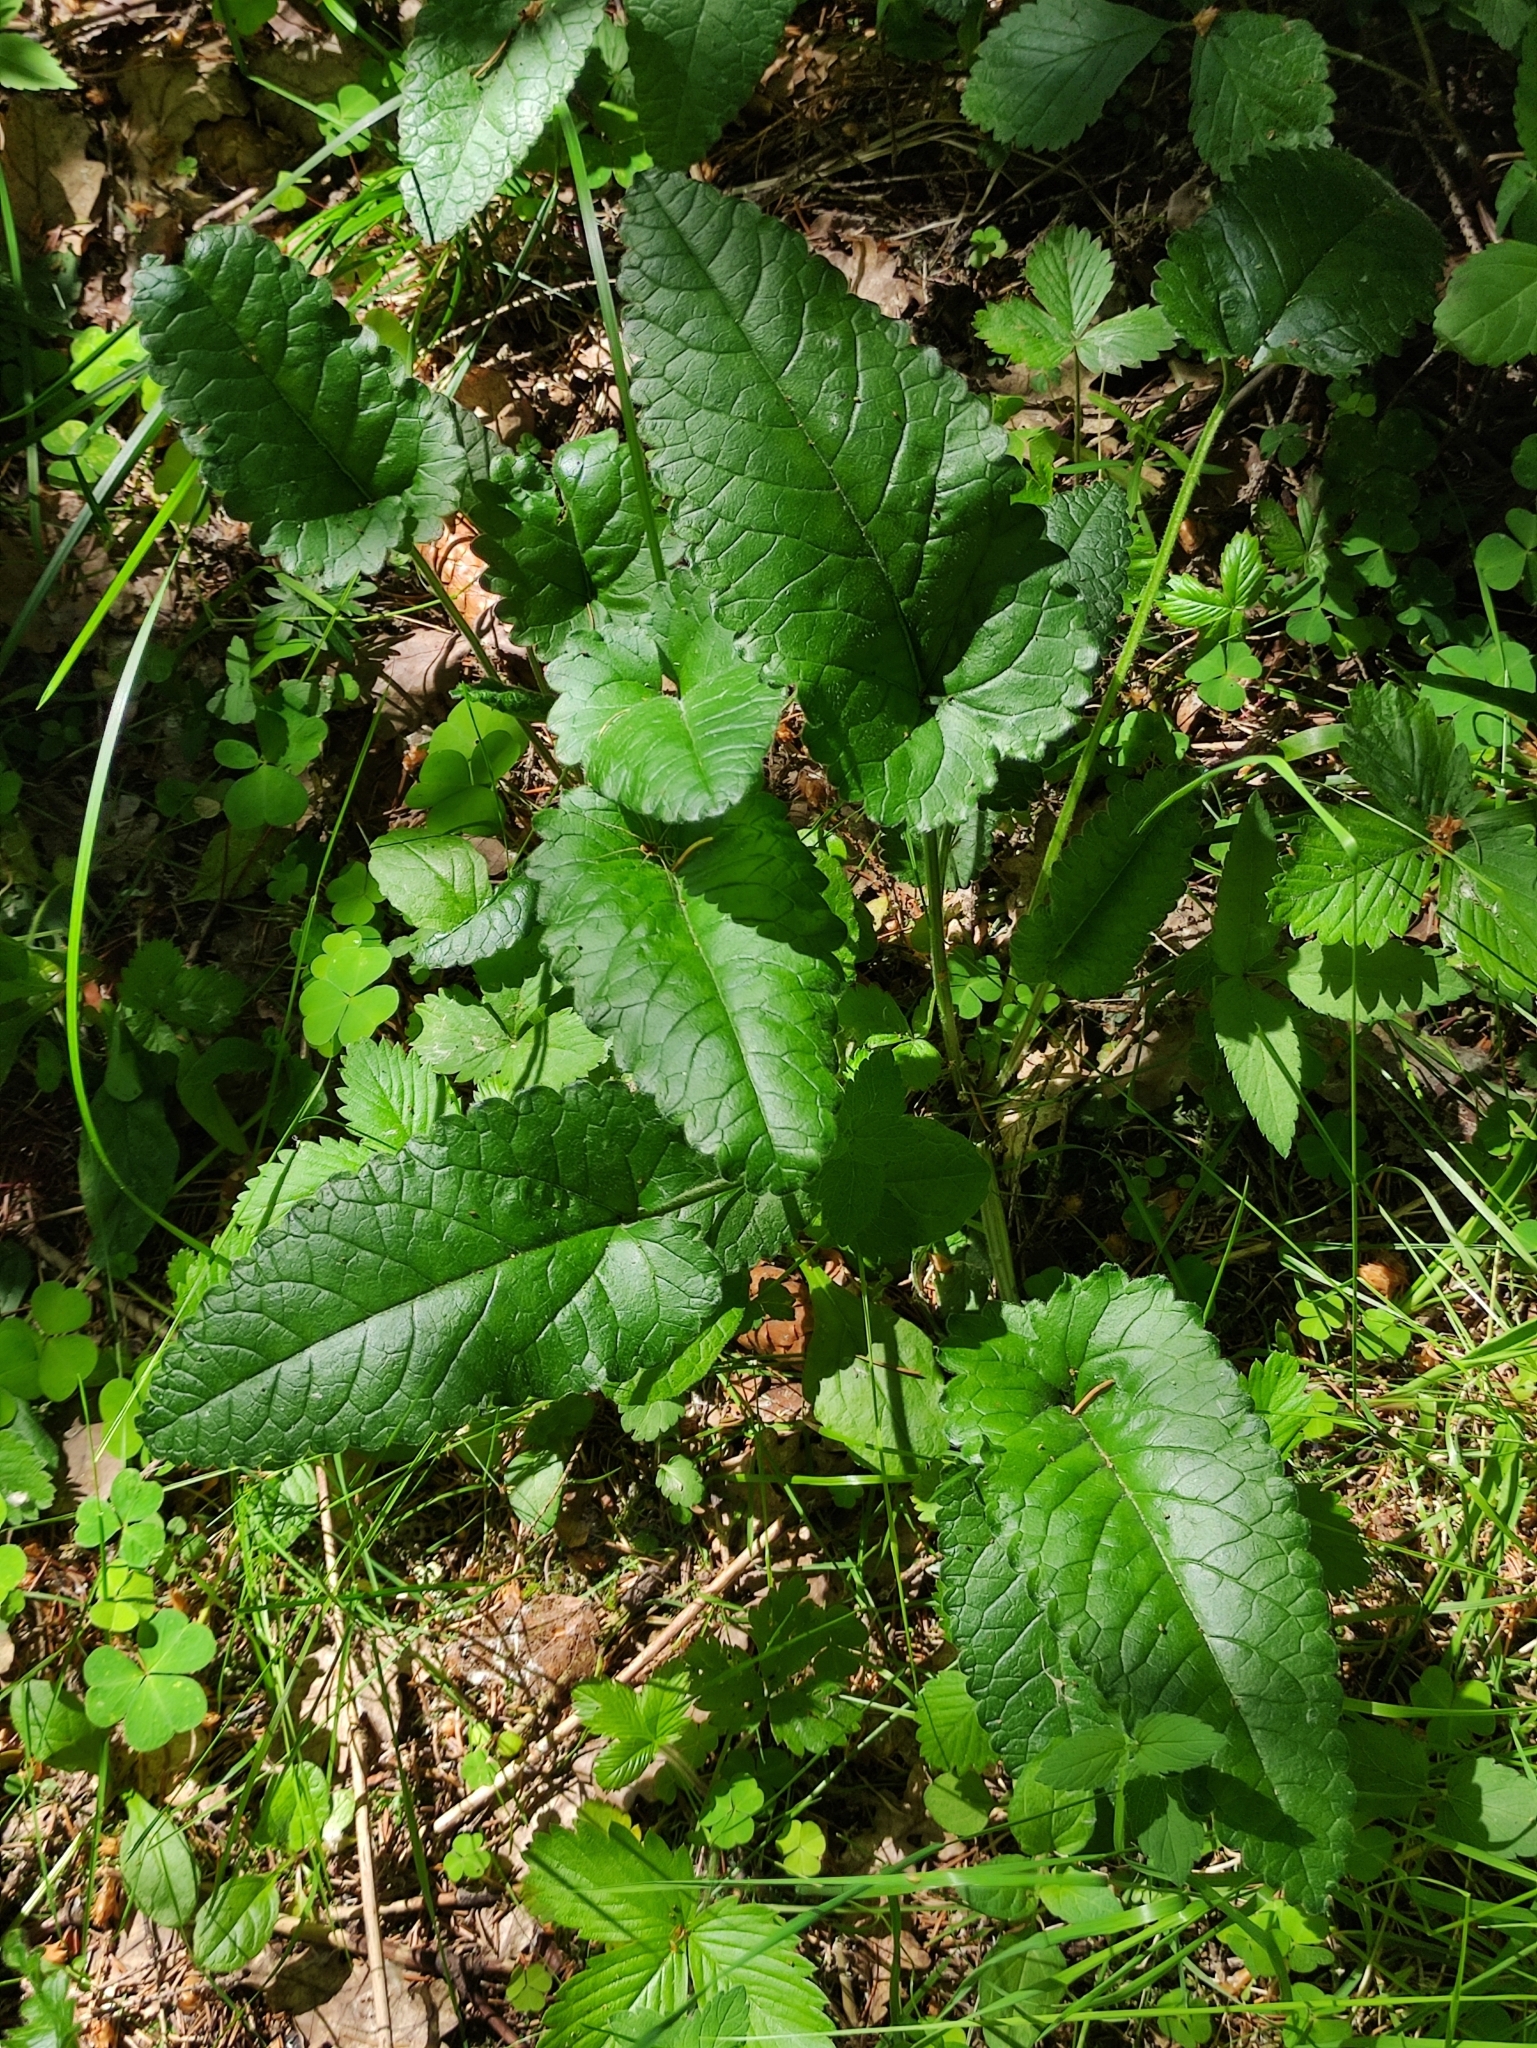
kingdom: Plantae
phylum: Tracheophyta
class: Magnoliopsida
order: Lamiales
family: Lamiaceae
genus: Betonica
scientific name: Betonica officinalis
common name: Bishop's-wort
